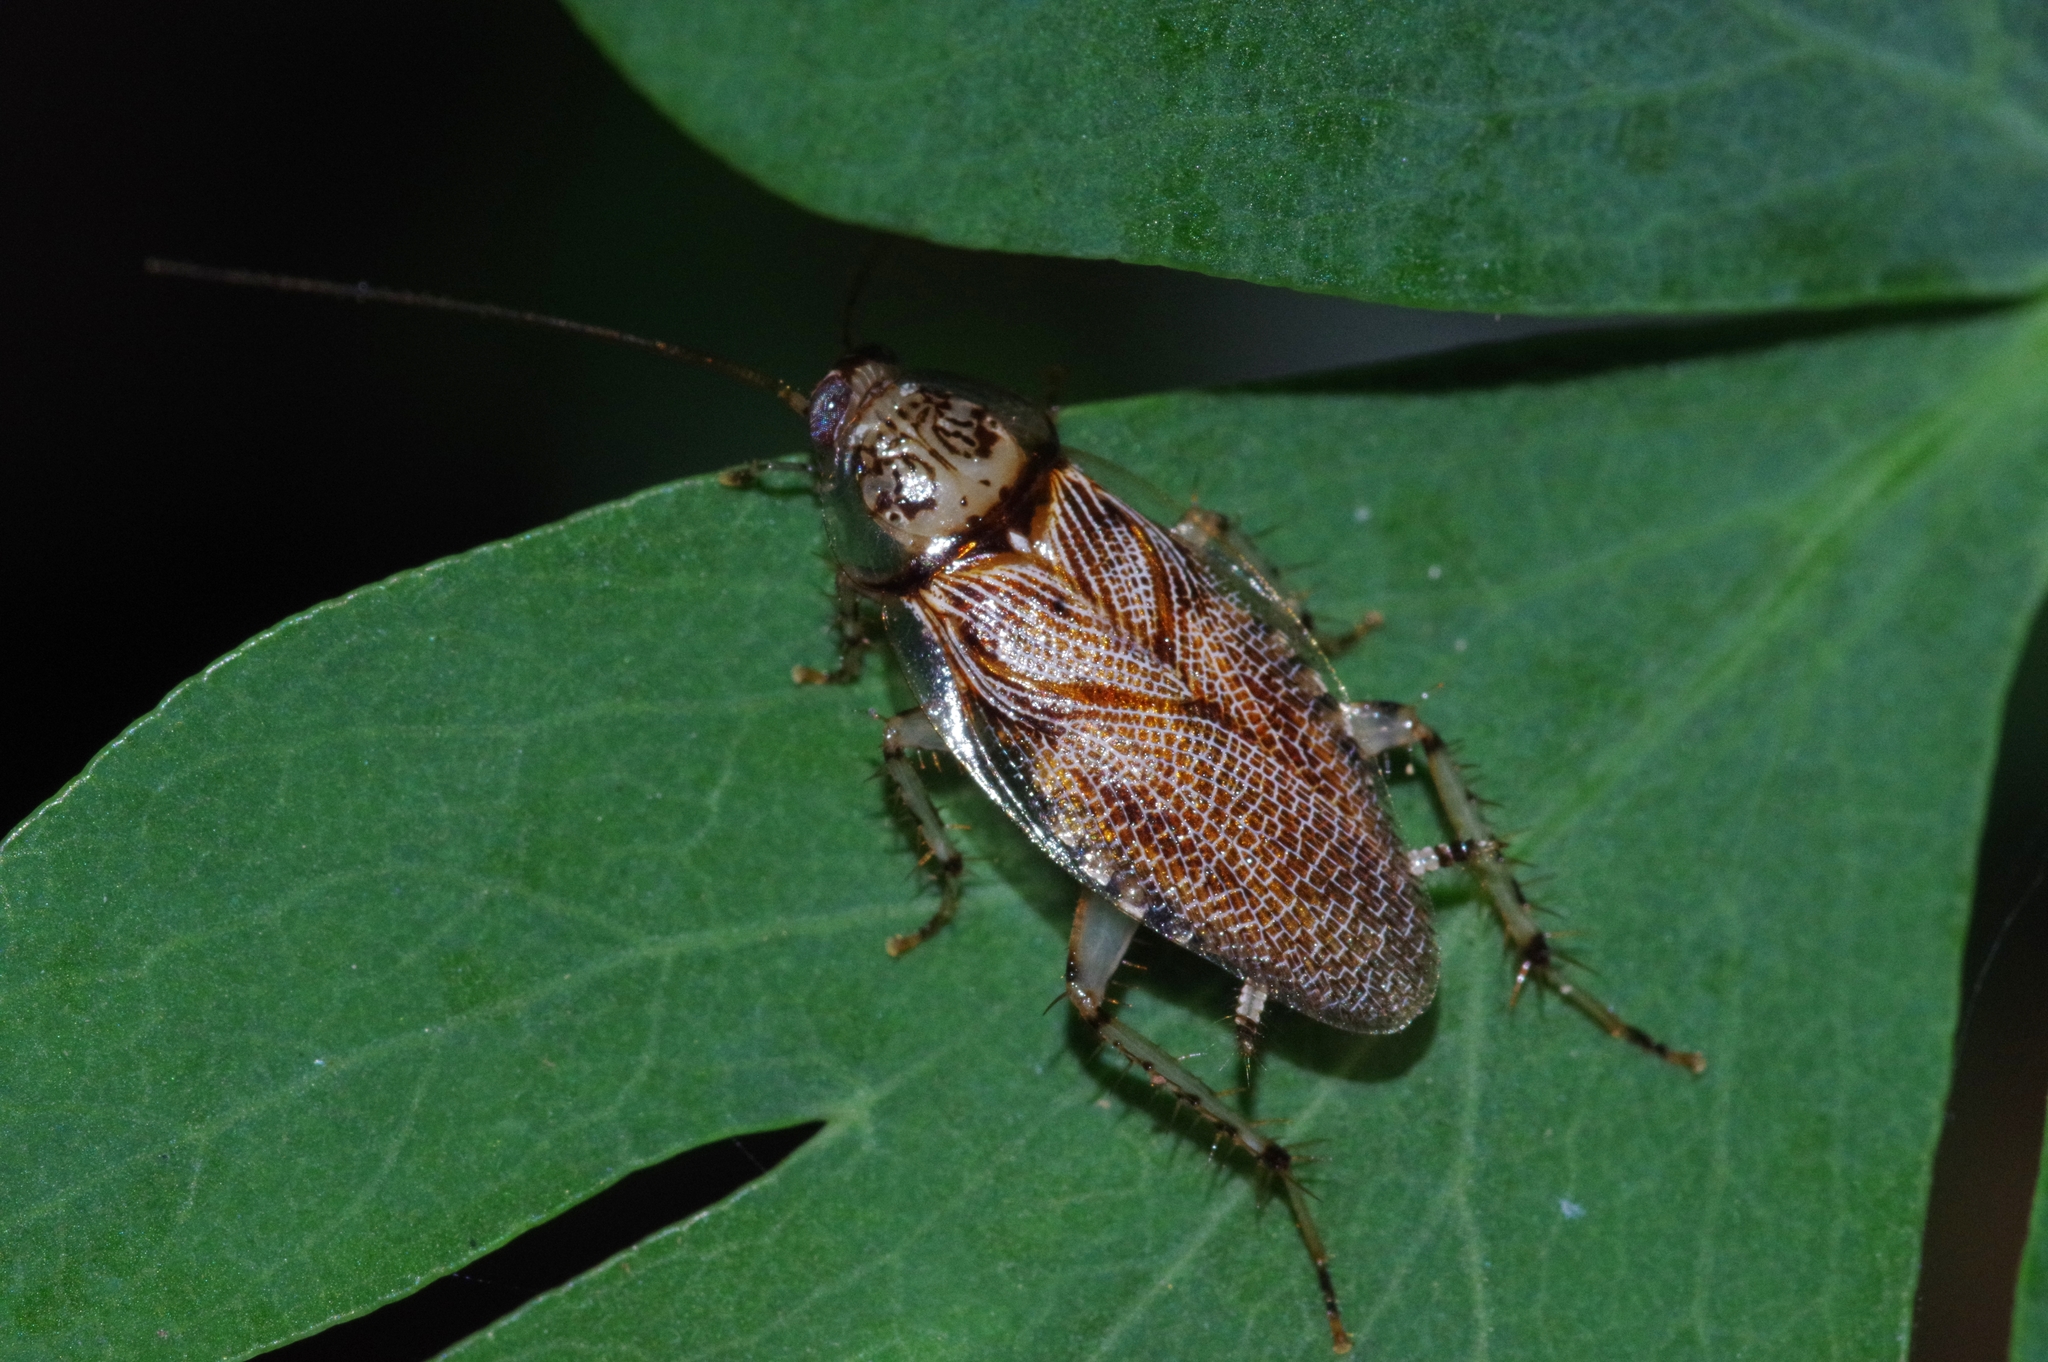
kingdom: Animalia
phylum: Arthropoda
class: Insecta
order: Blattodea
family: Ectobiidae
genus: Balta
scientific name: Balta notulata
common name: Cockroach
